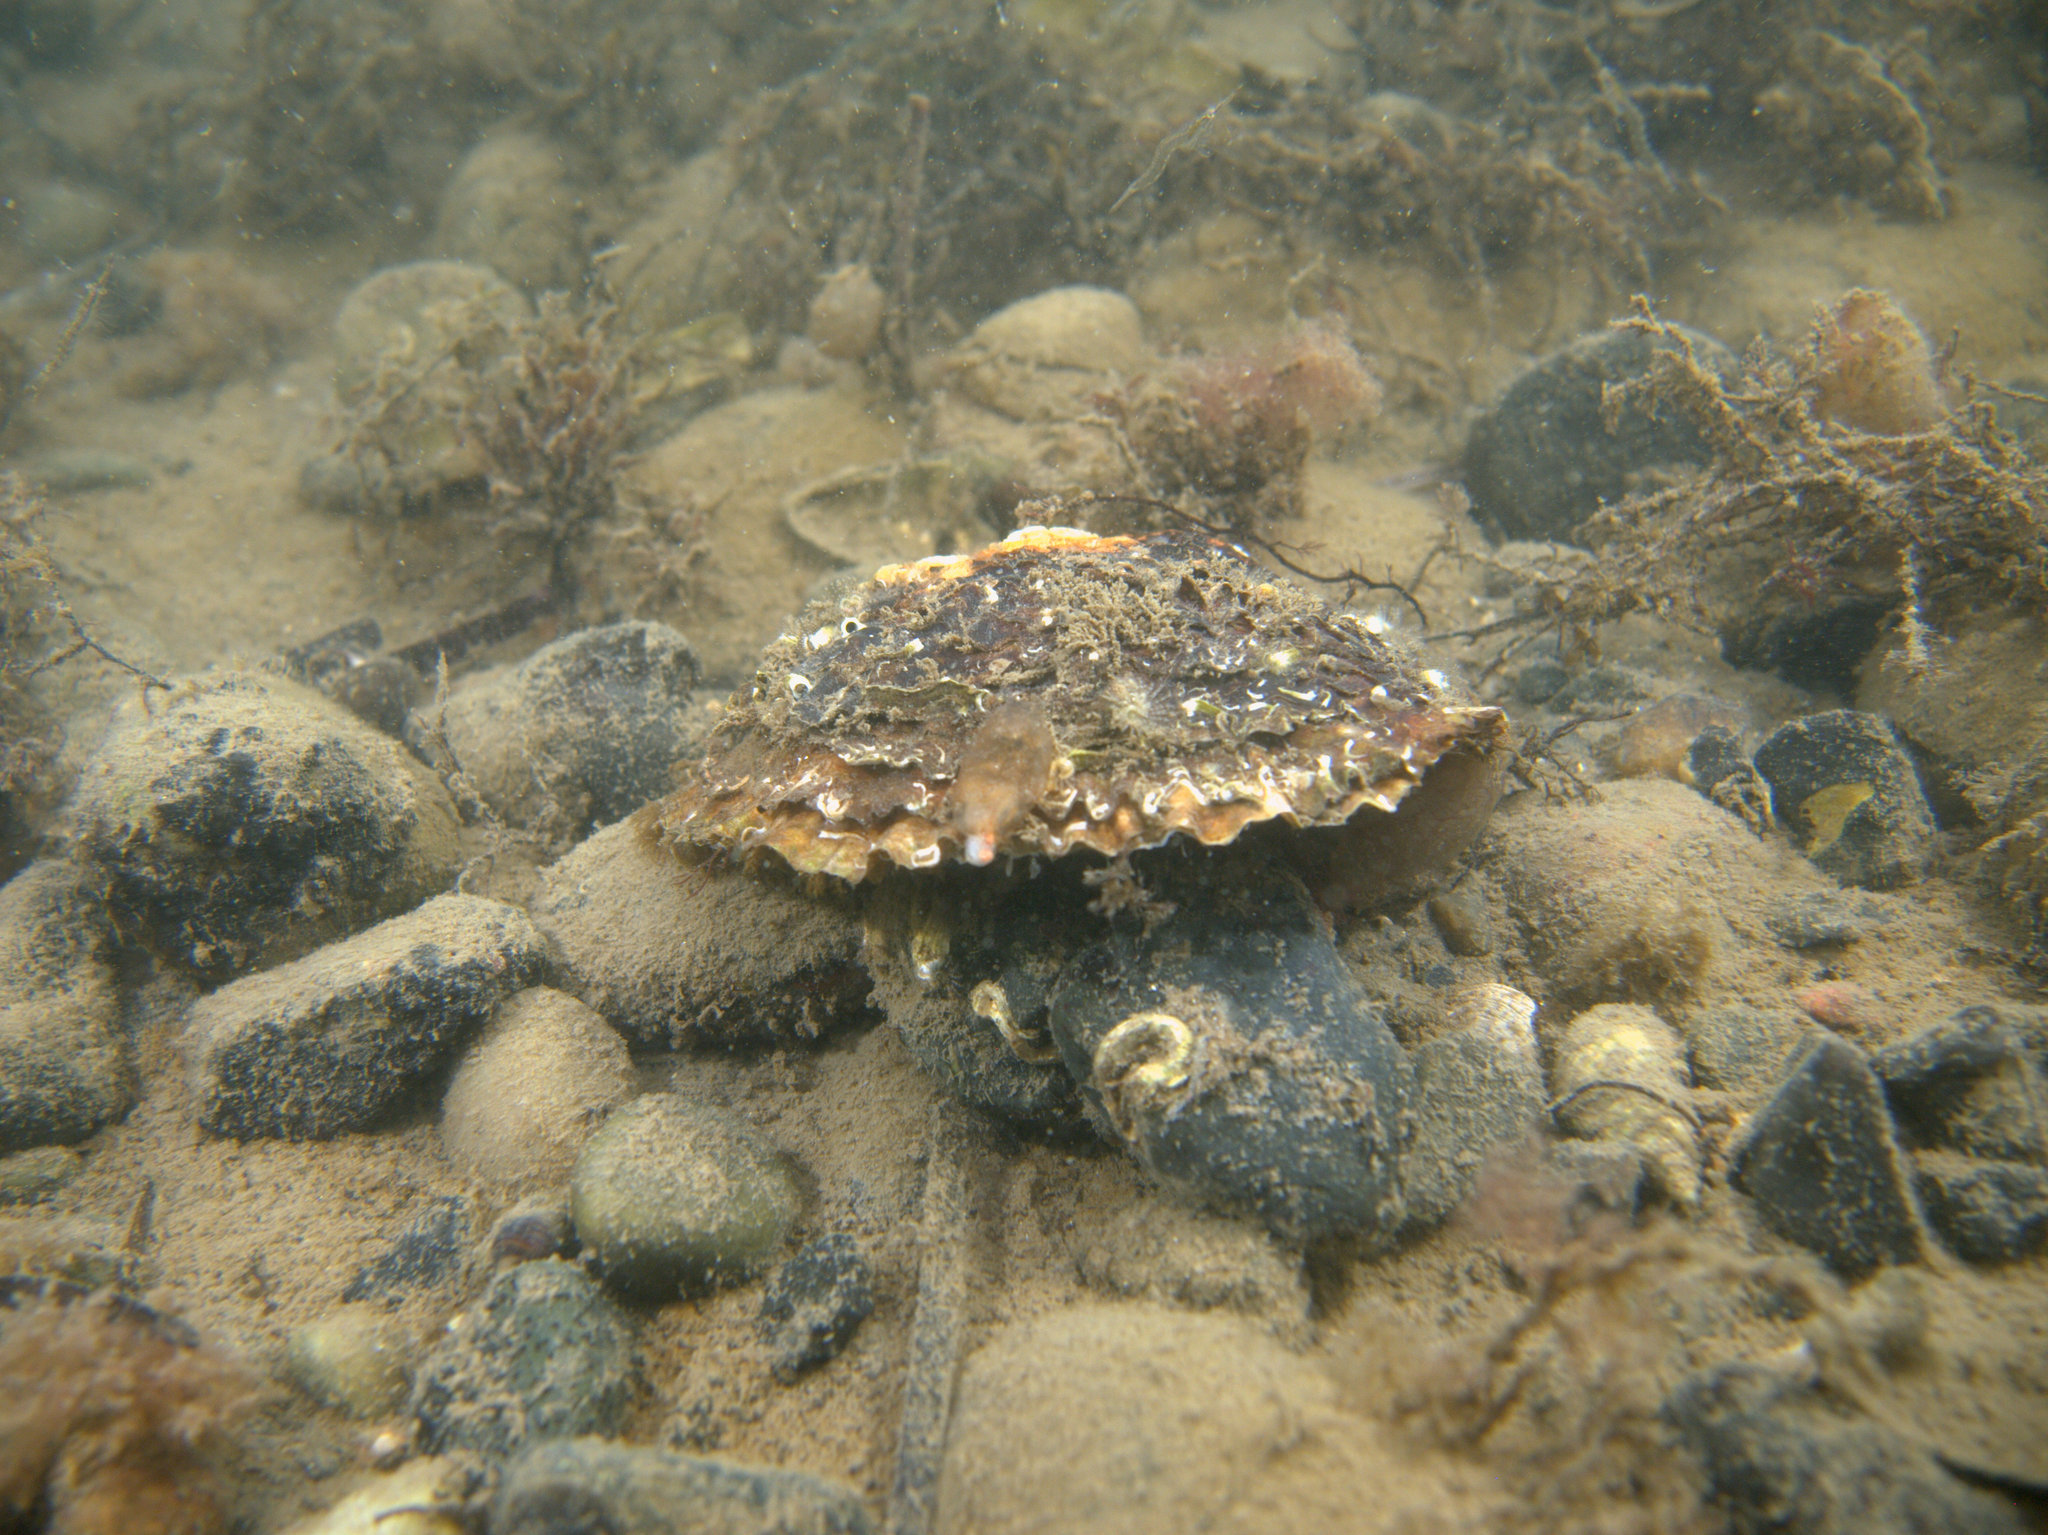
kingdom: Animalia
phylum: Mollusca
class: Bivalvia
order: Ostreida
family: Ostreidae
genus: Ostrea
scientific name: Ostrea edulis
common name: Flat oyster
